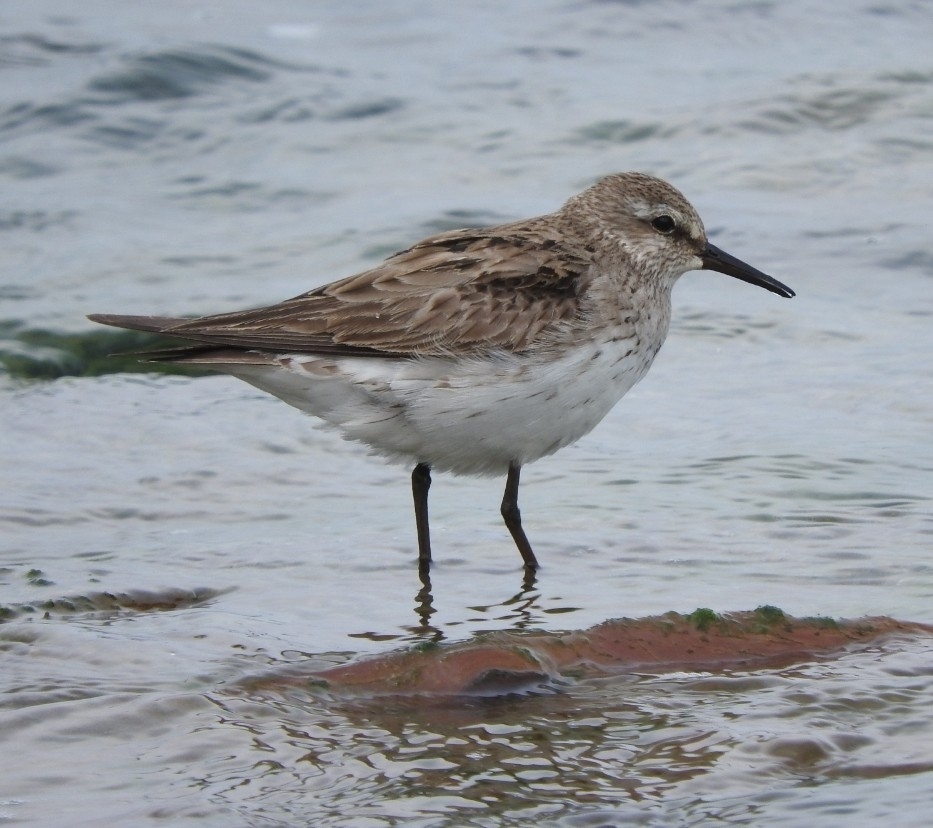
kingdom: Animalia
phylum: Chordata
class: Aves
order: Charadriiformes
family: Scolopacidae
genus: Calidris
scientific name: Calidris fuscicollis
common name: White-rumped sandpiper
